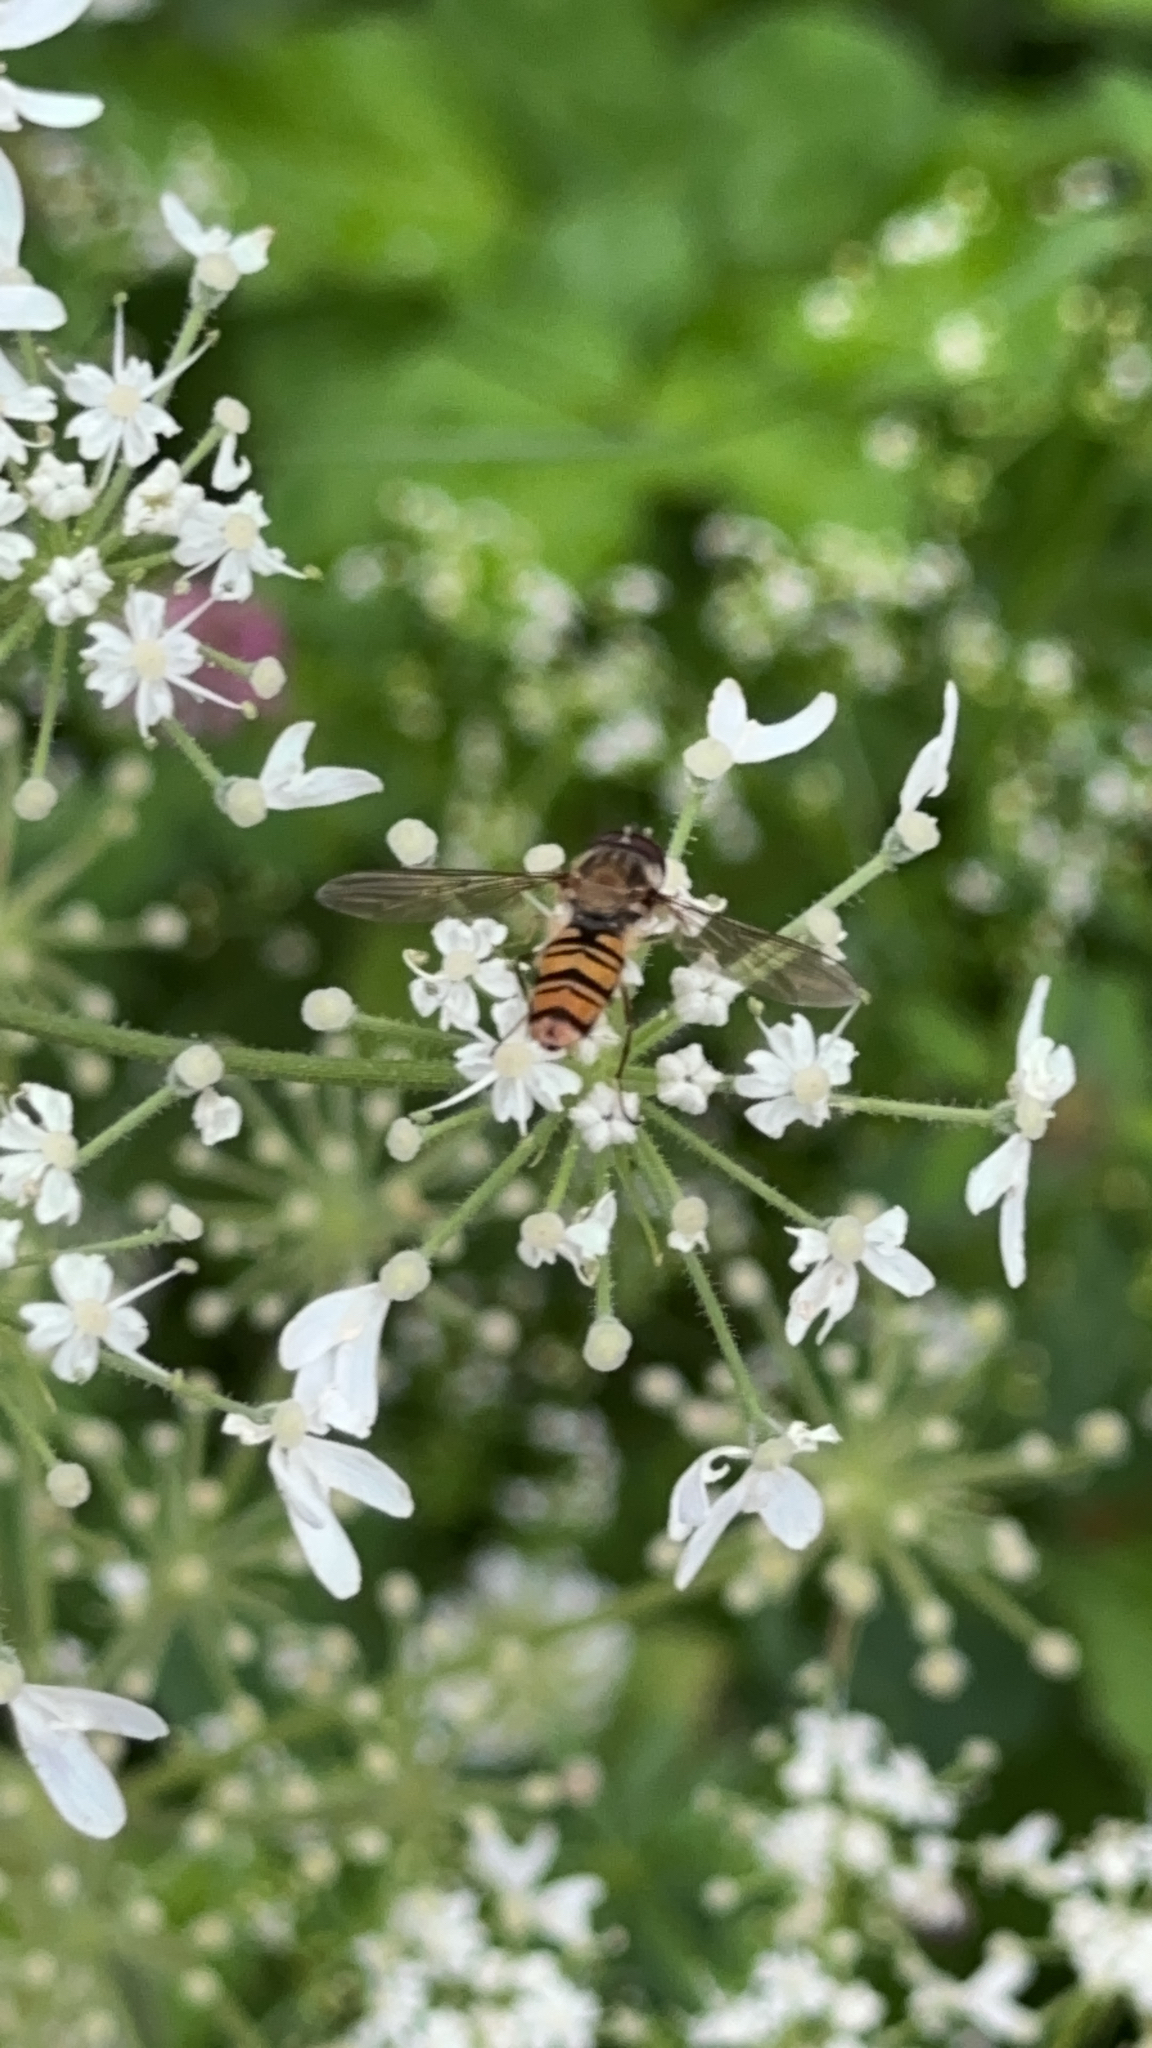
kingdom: Animalia
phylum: Arthropoda
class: Insecta
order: Diptera
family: Syrphidae
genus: Episyrphus
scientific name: Episyrphus balteatus
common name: Marmalade hoverfly
